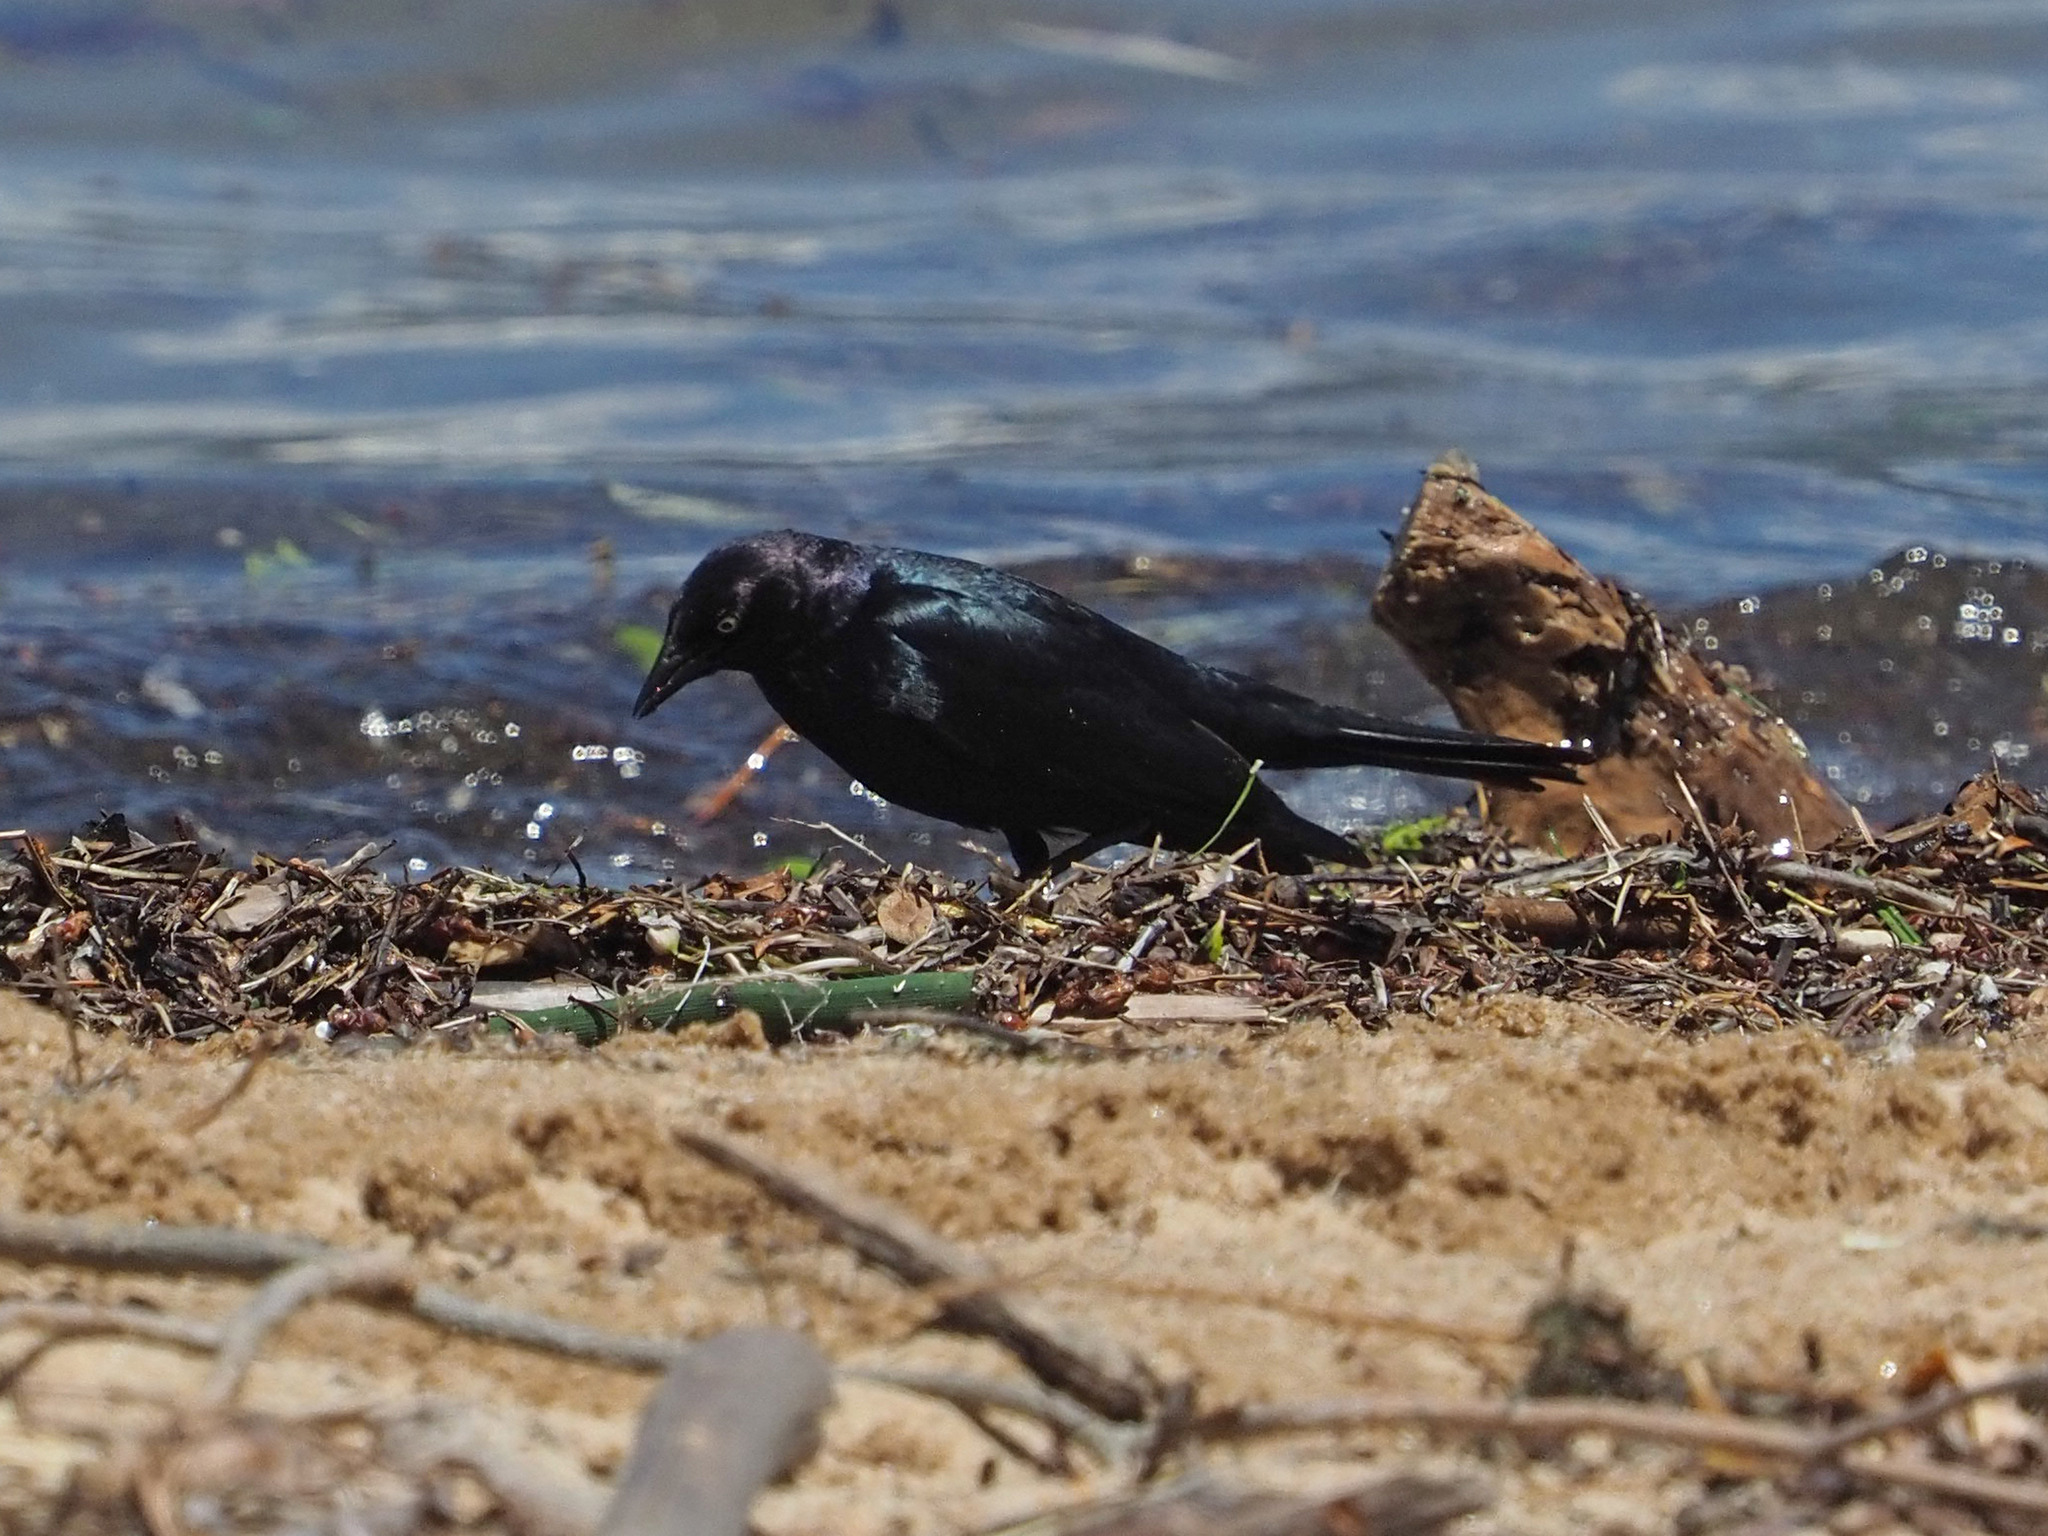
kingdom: Animalia
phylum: Chordata
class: Aves
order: Passeriformes
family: Icteridae
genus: Euphagus
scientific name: Euphagus cyanocephalus
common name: Brewer's blackbird
